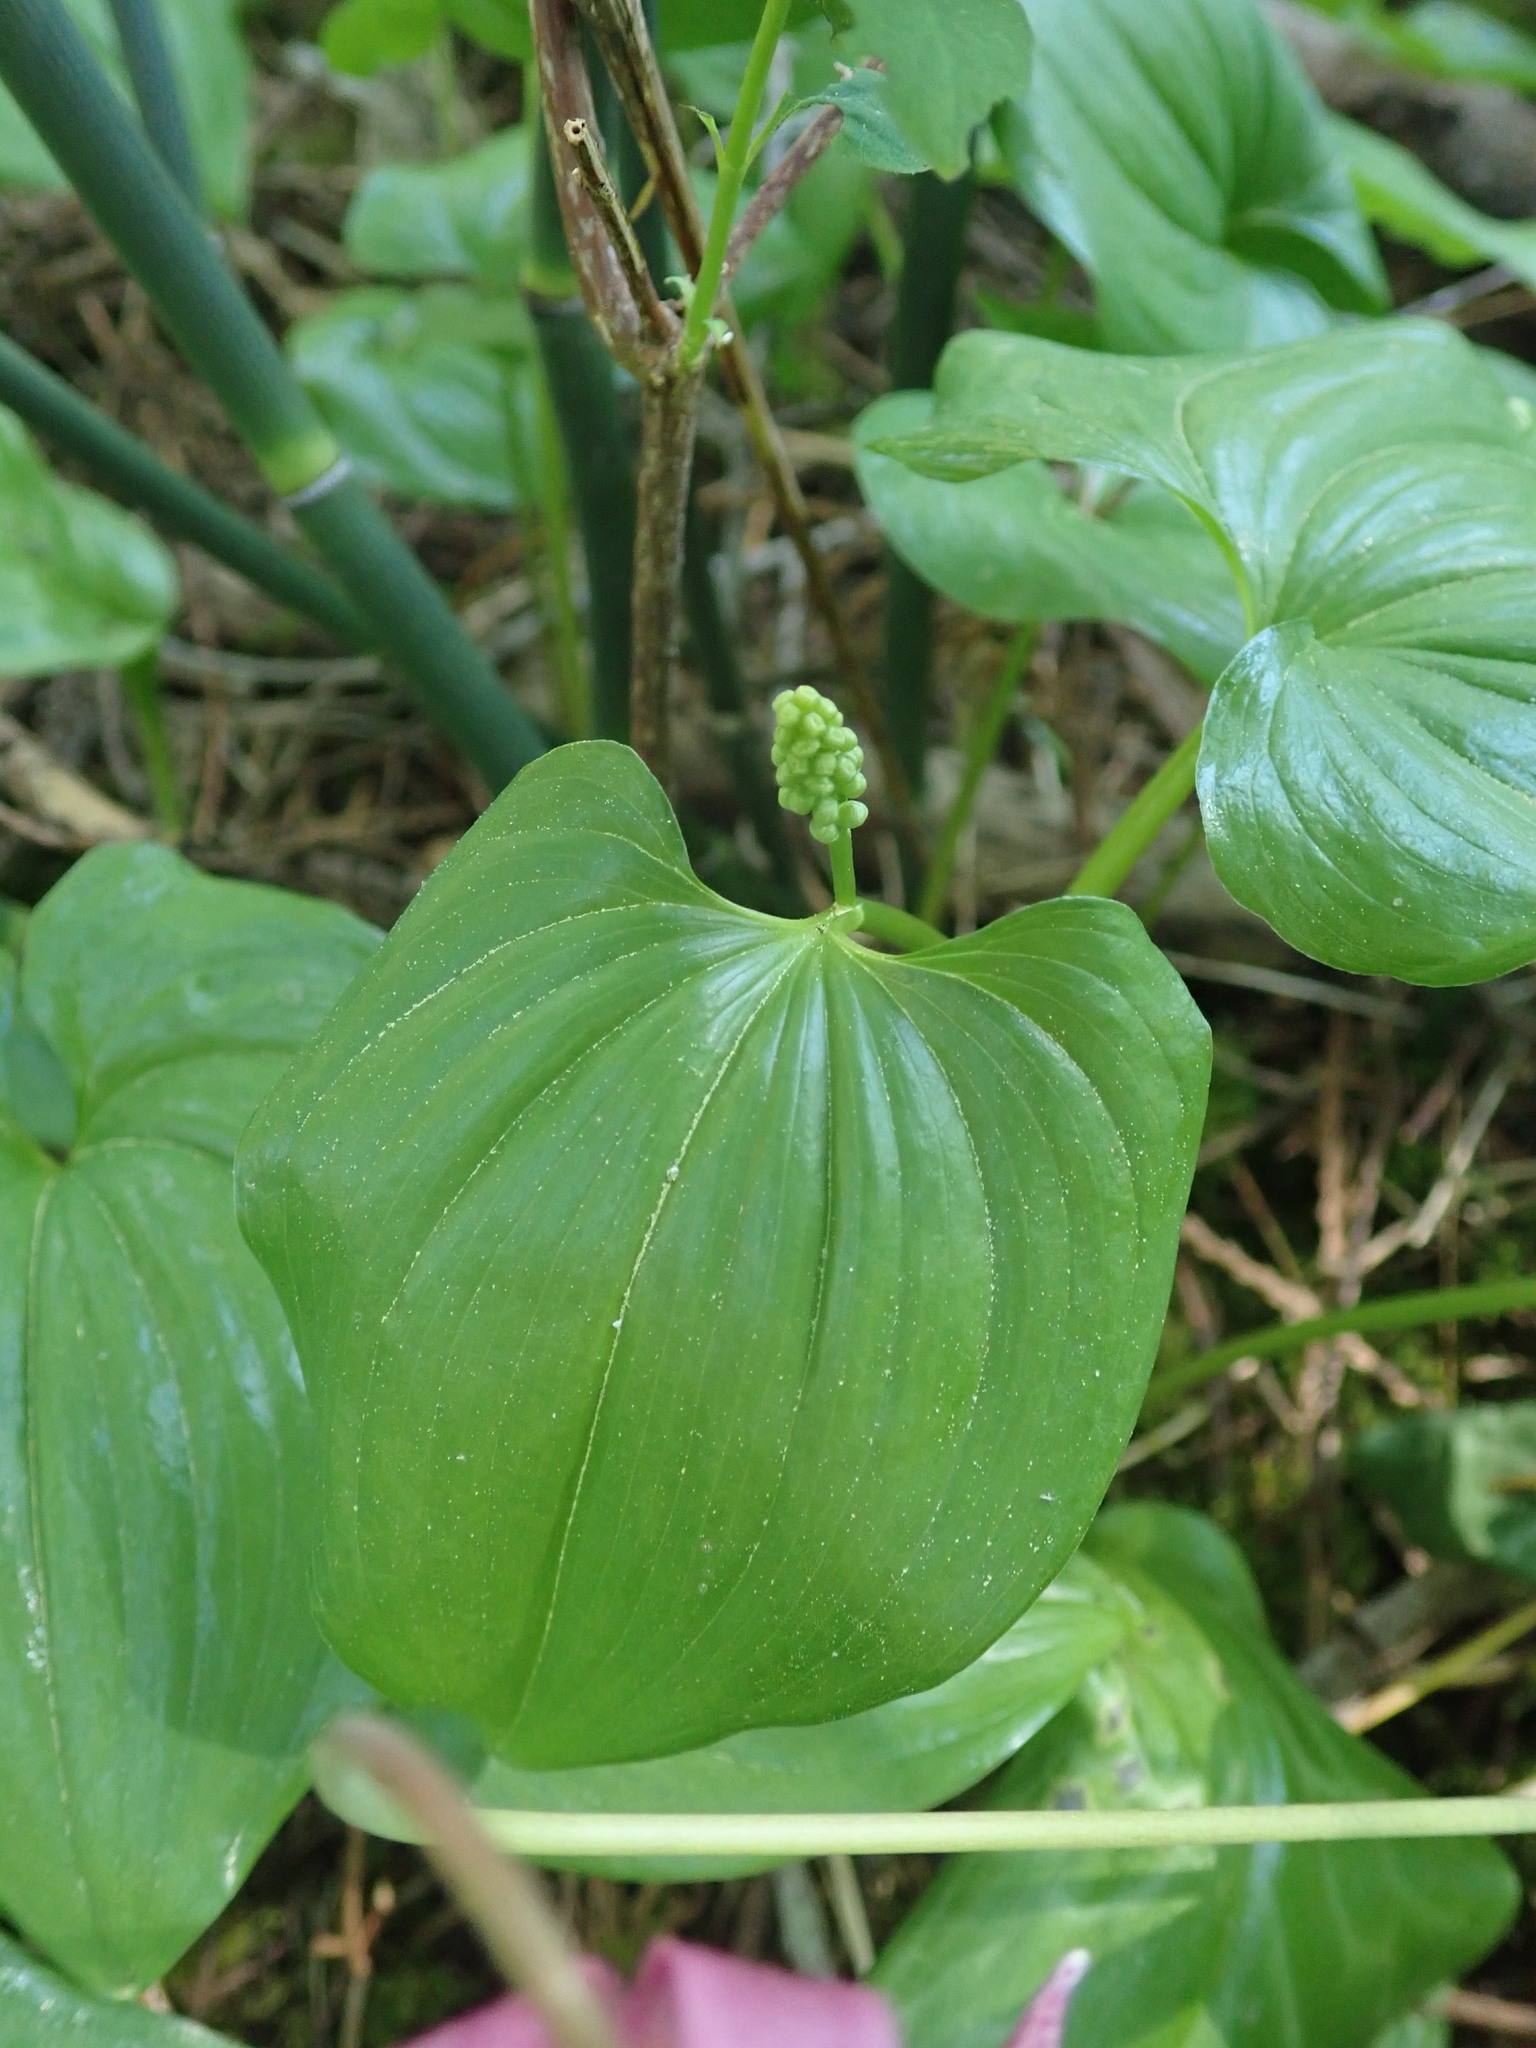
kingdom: Plantae
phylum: Tracheophyta
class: Liliopsida
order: Asparagales
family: Asparagaceae
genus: Maianthemum
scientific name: Maianthemum dilatatum
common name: False lily-of-the-valley
